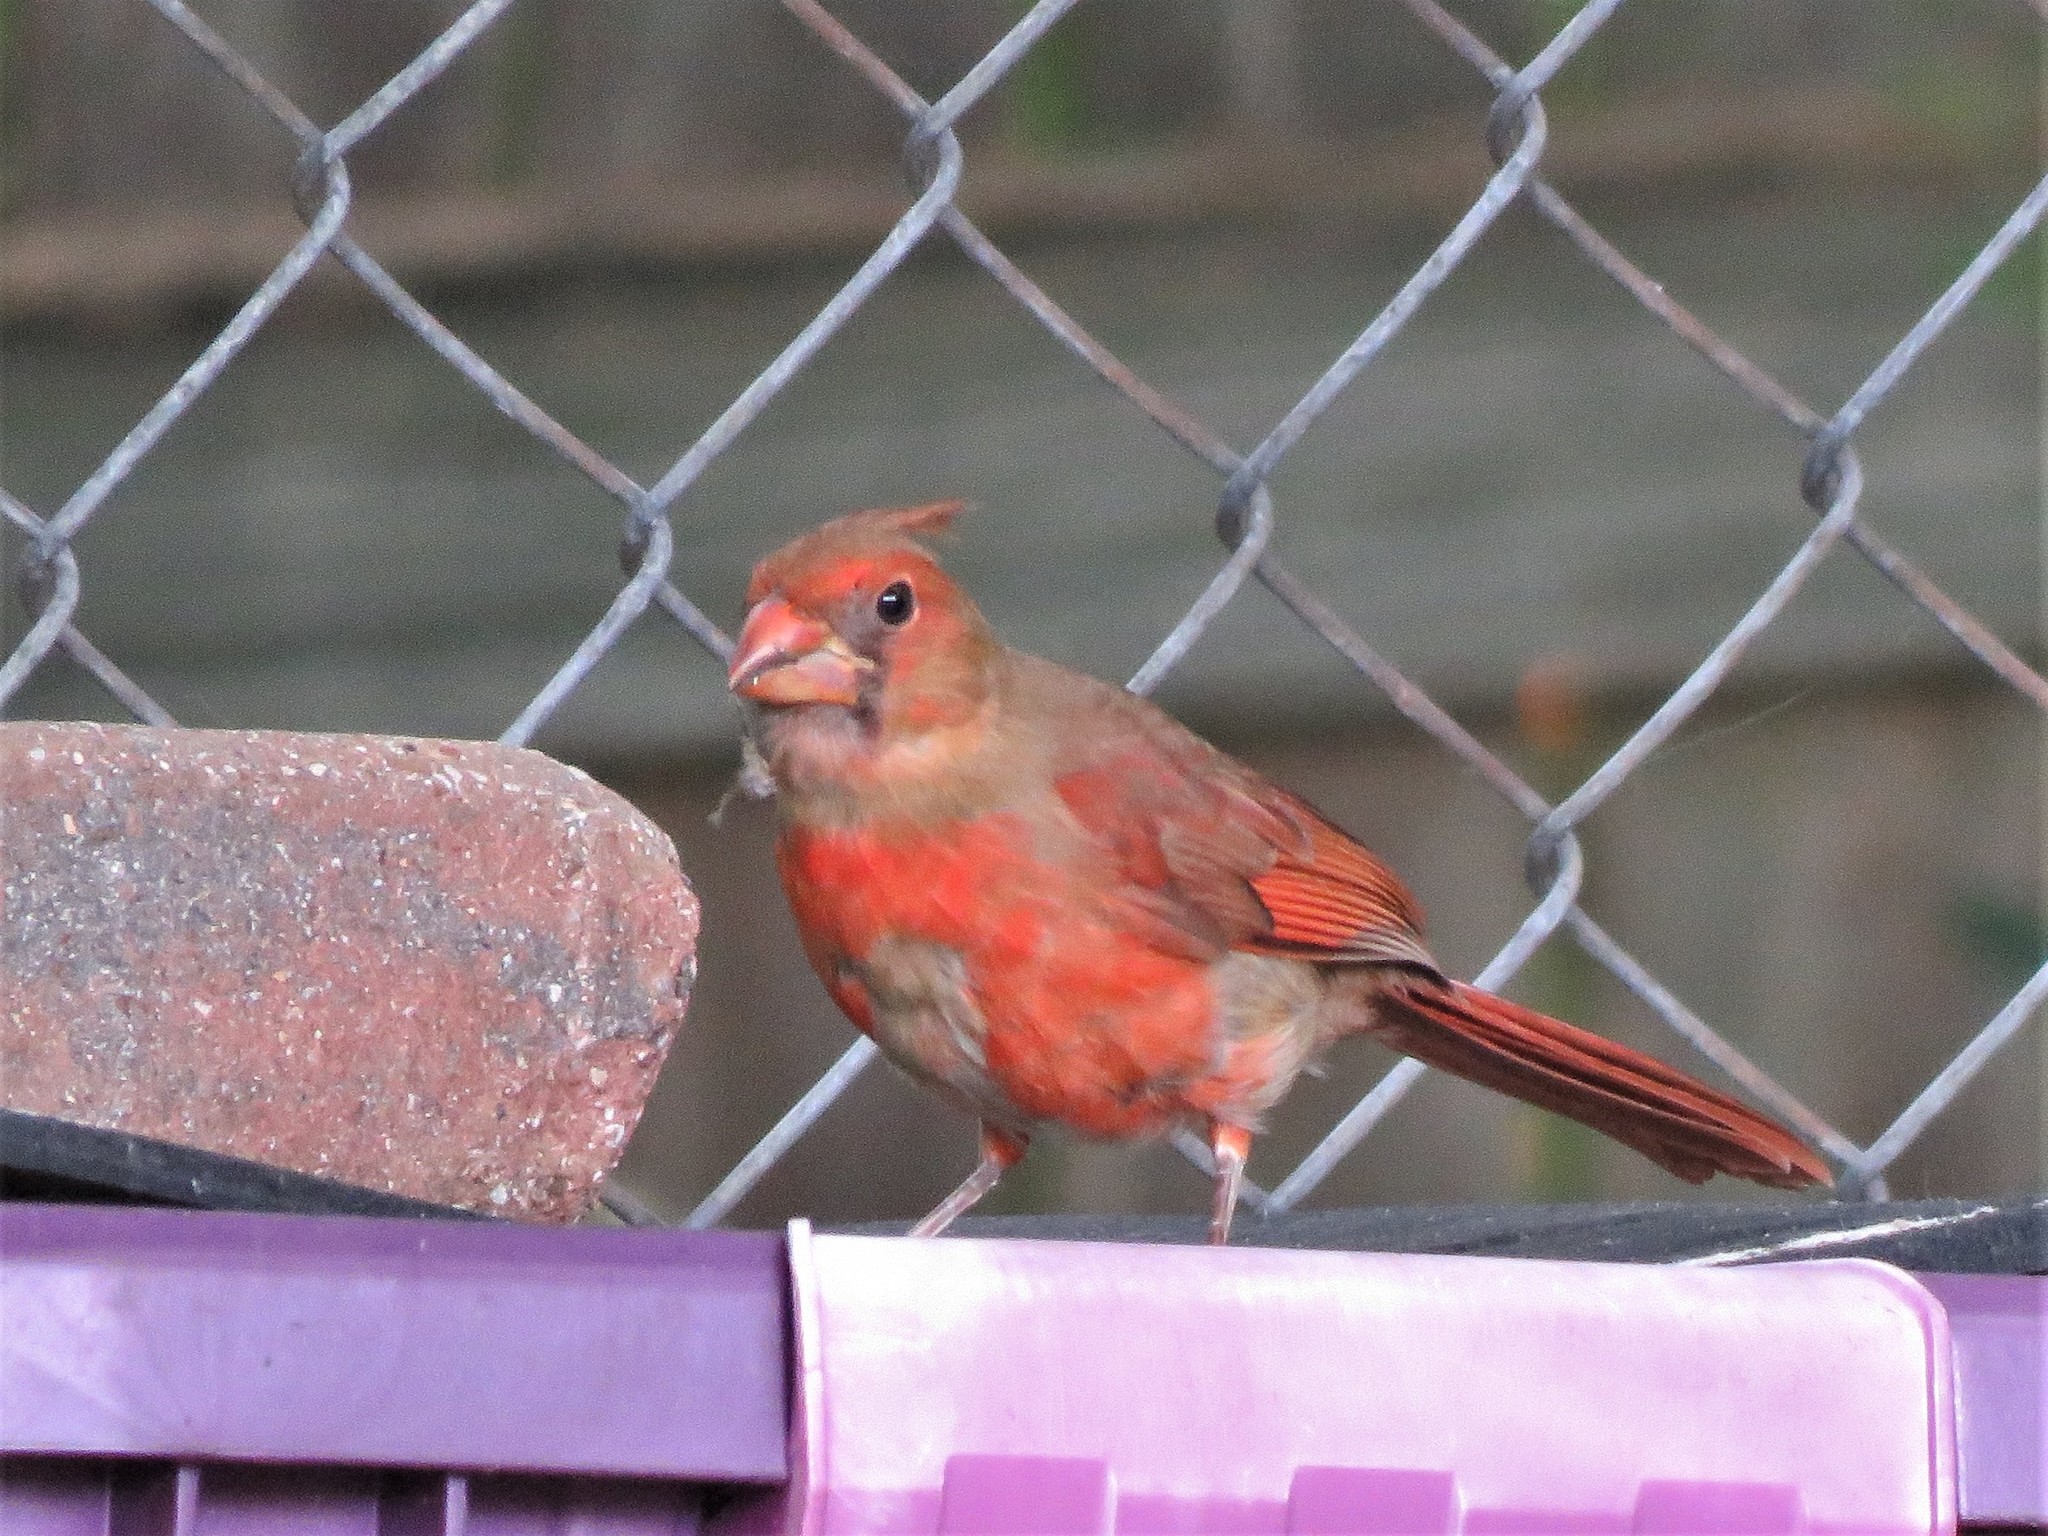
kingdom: Animalia
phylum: Chordata
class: Aves
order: Passeriformes
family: Cardinalidae
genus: Cardinalis
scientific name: Cardinalis cardinalis
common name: Northern cardinal
